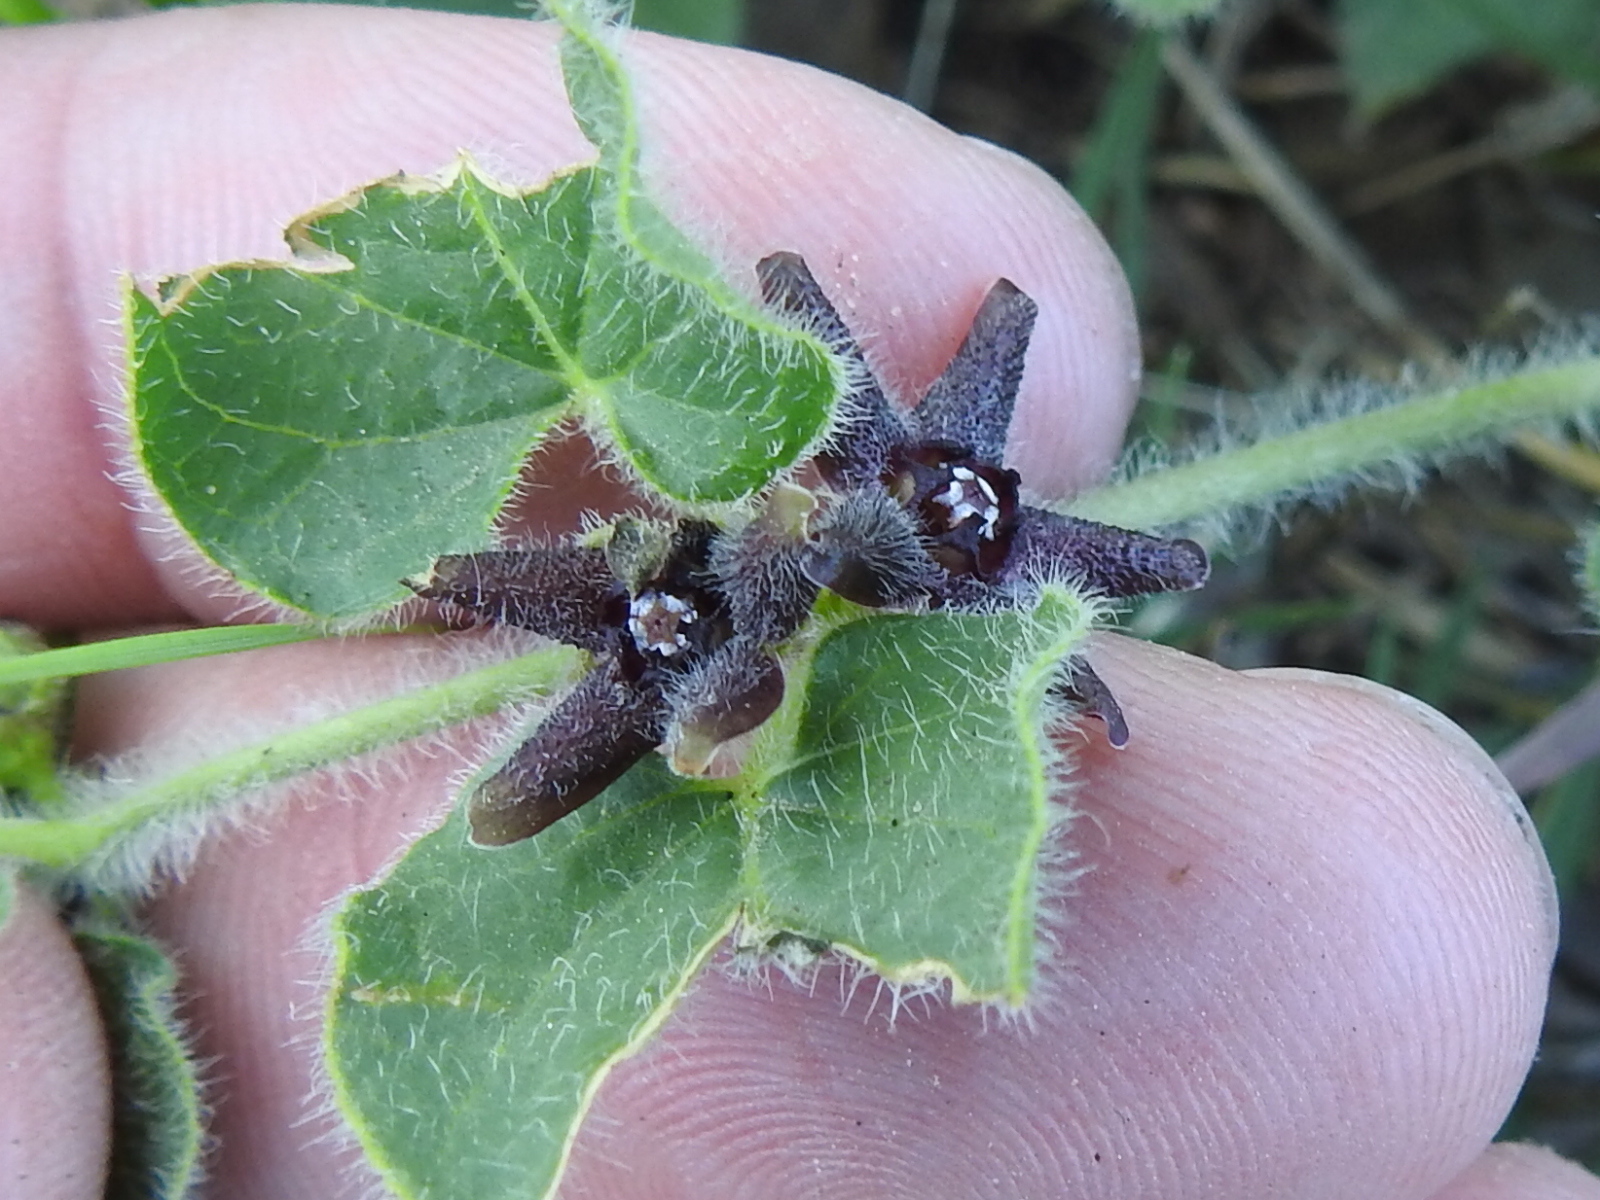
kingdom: Plantae
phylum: Tracheophyta
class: Magnoliopsida
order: Gentianales
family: Apocynaceae
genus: Chthamalia
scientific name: Chthamalia biflora
